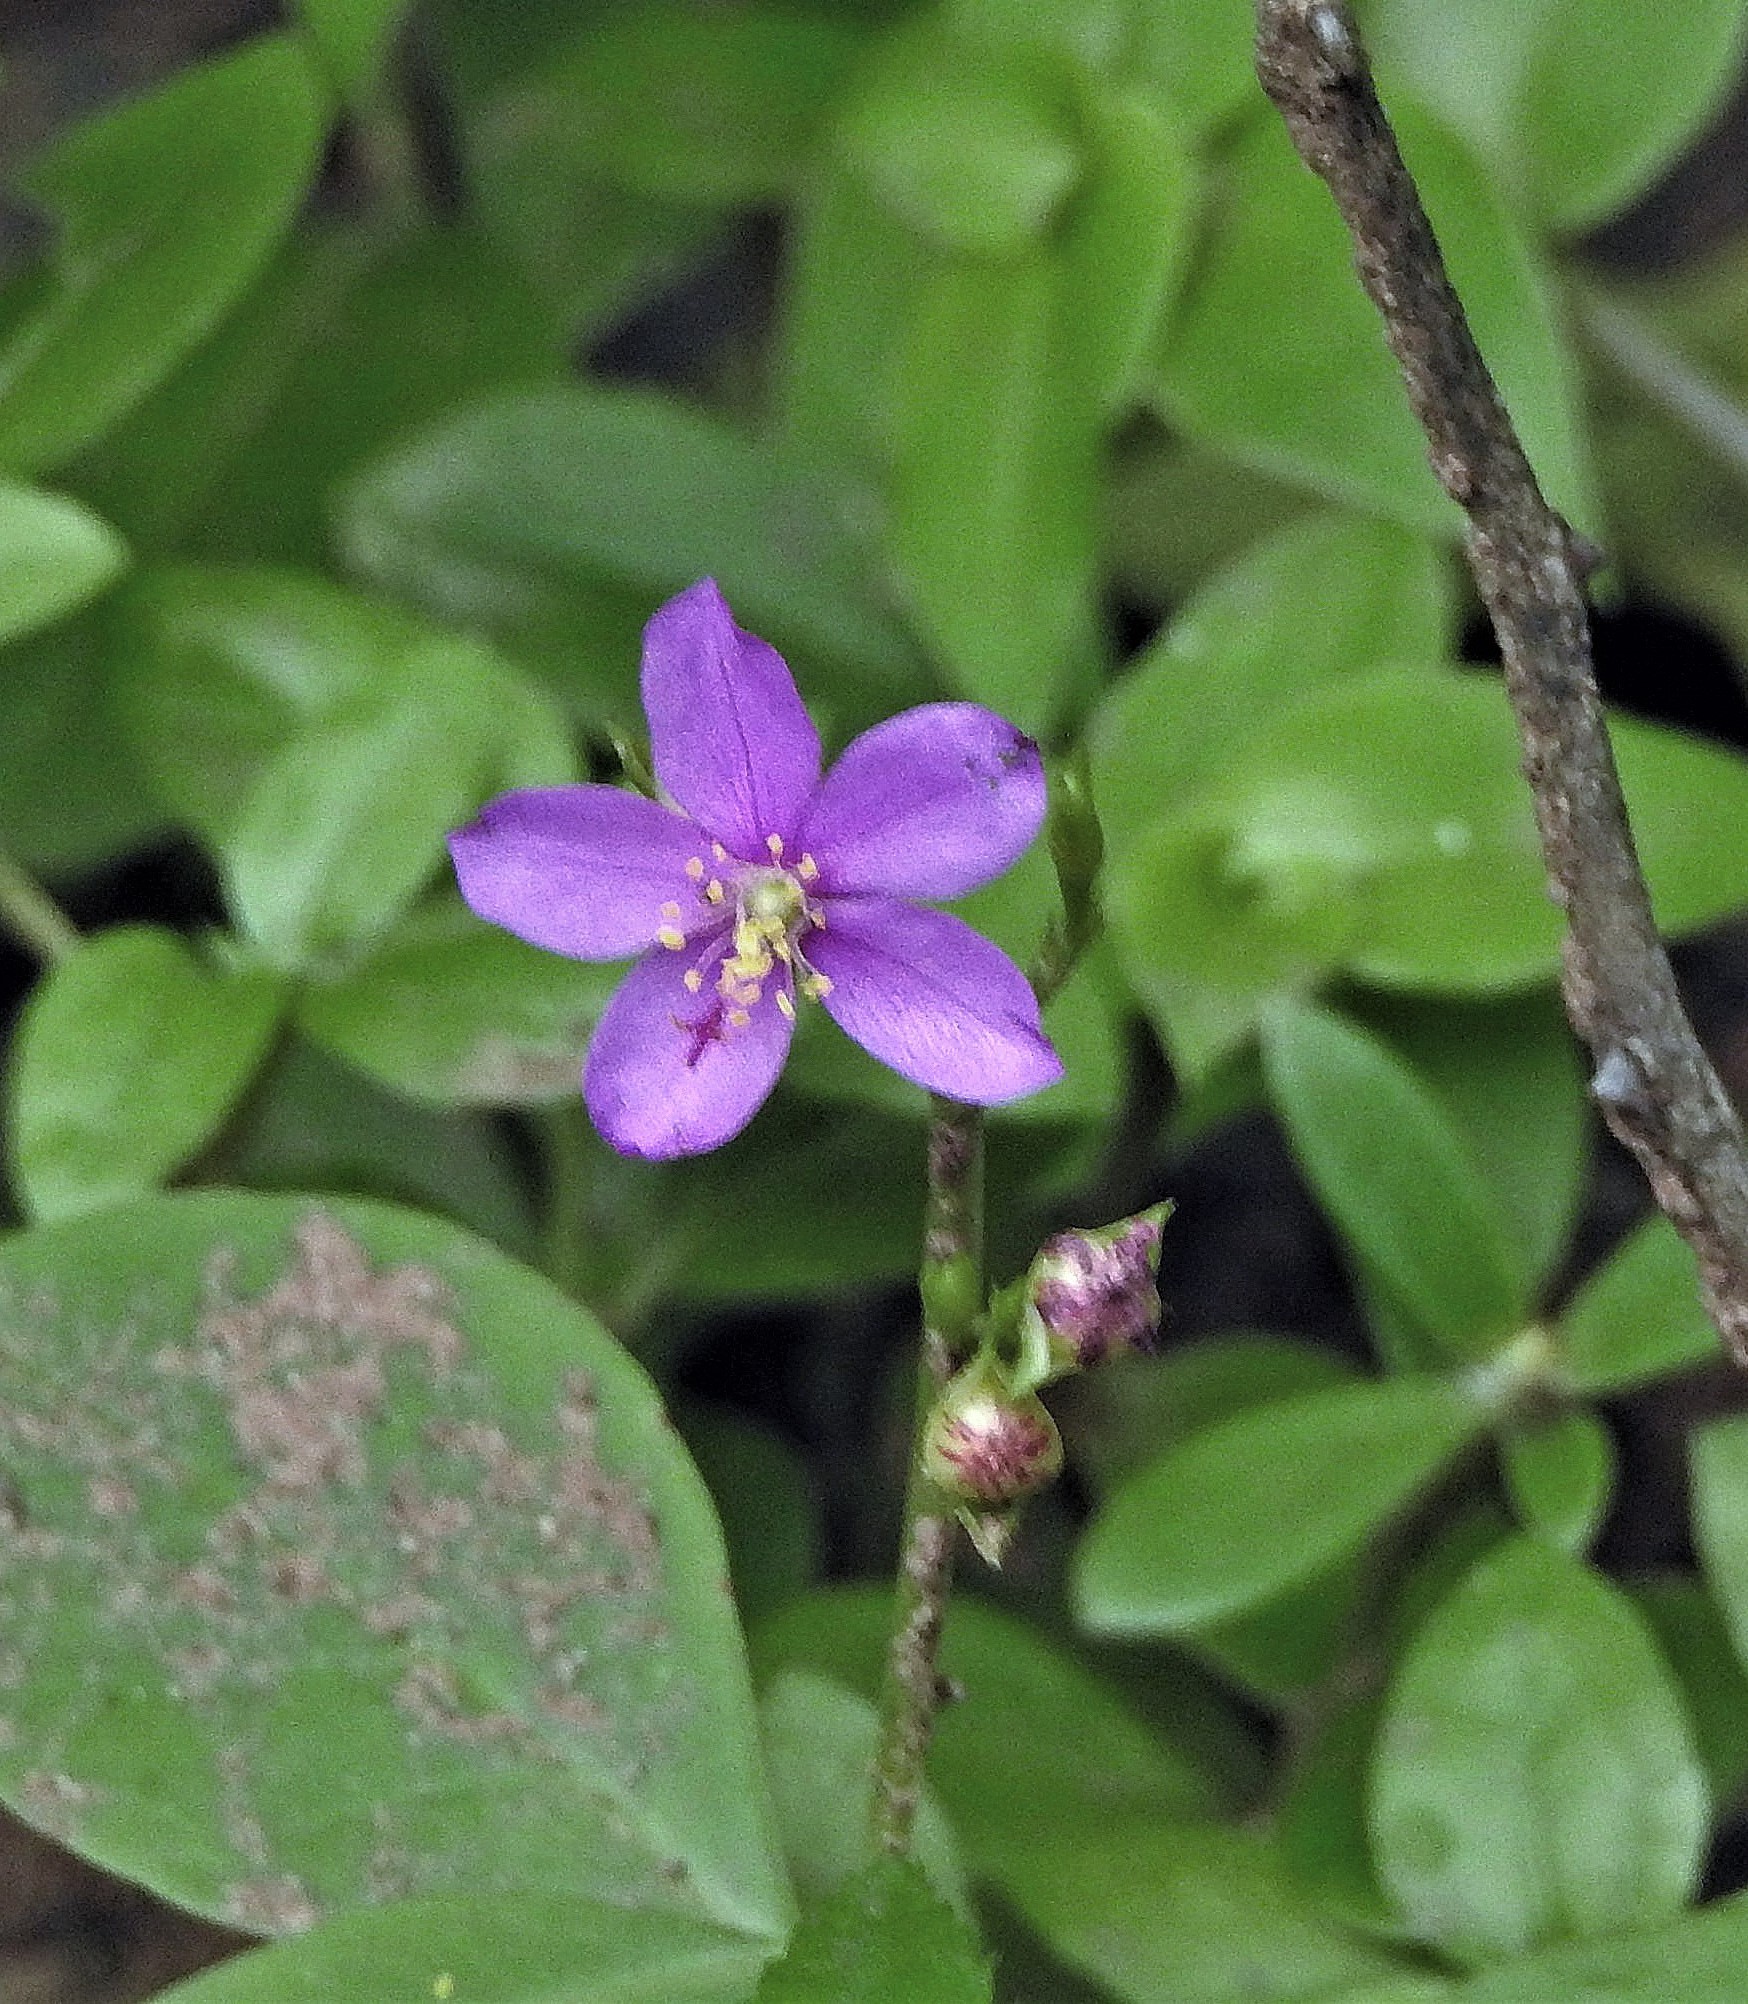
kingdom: Plantae
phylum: Tracheophyta
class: Magnoliopsida
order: Caryophyllales
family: Talinaceae
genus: Talinum
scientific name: Talinum fruticosum
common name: Verdolaga-francesa
